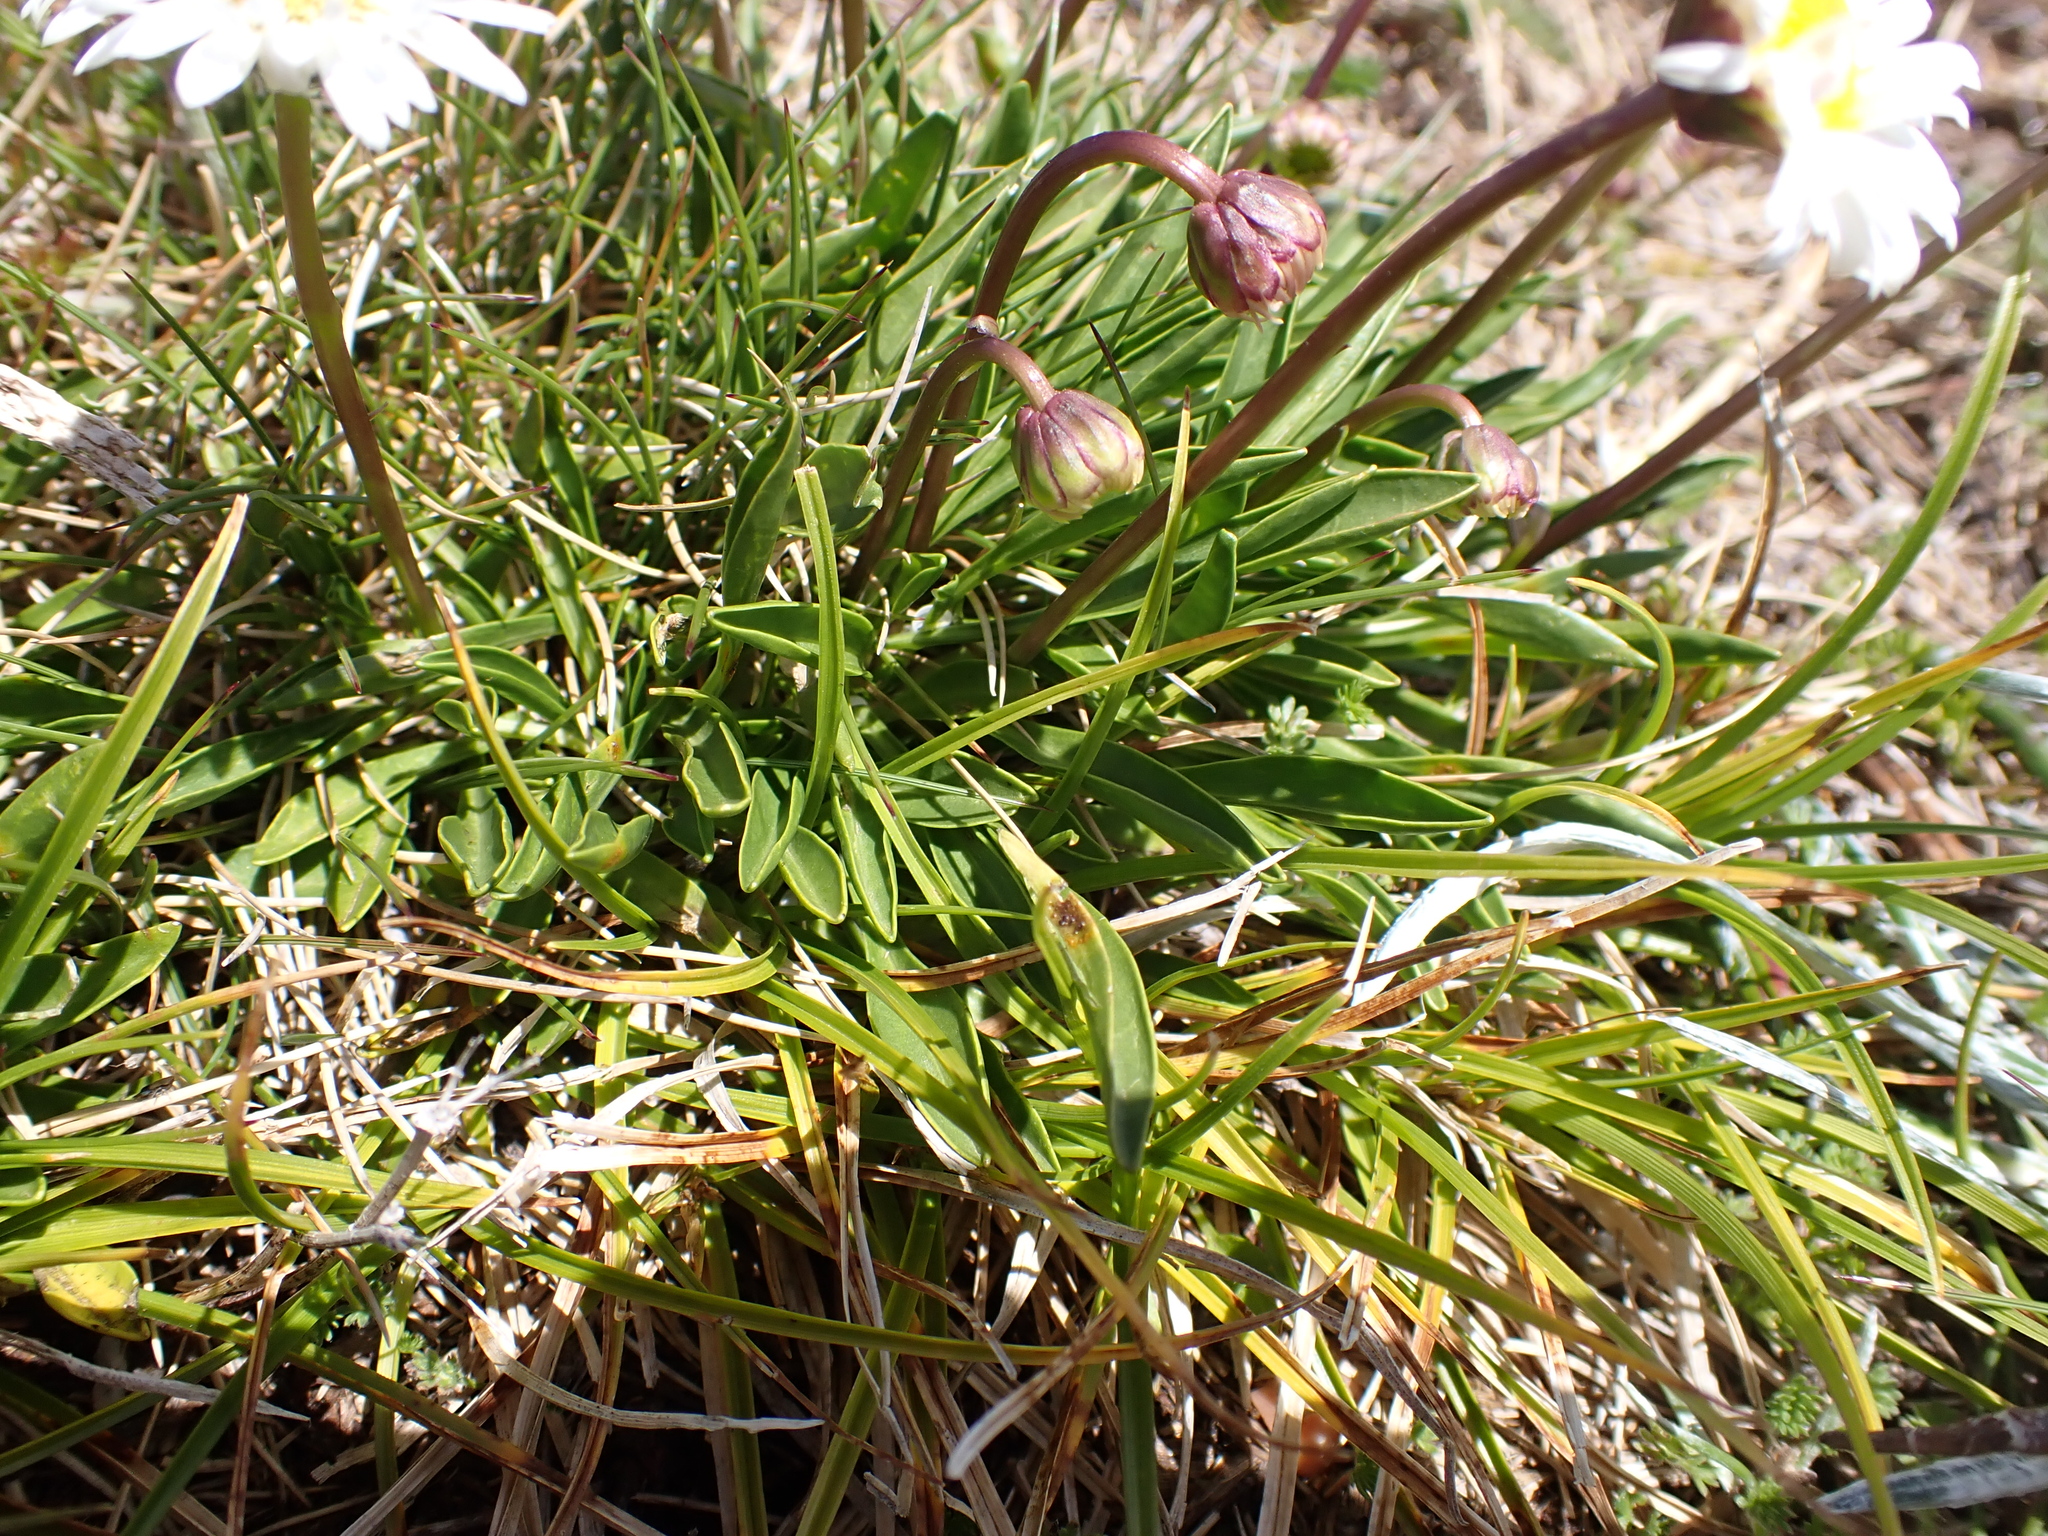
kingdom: Plantae
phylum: Tracheophyta
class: Magnoliopsida
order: Asterales
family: Asteraceae
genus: Brachyscome
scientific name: Brachyscome scapigera
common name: Tufted daisy
